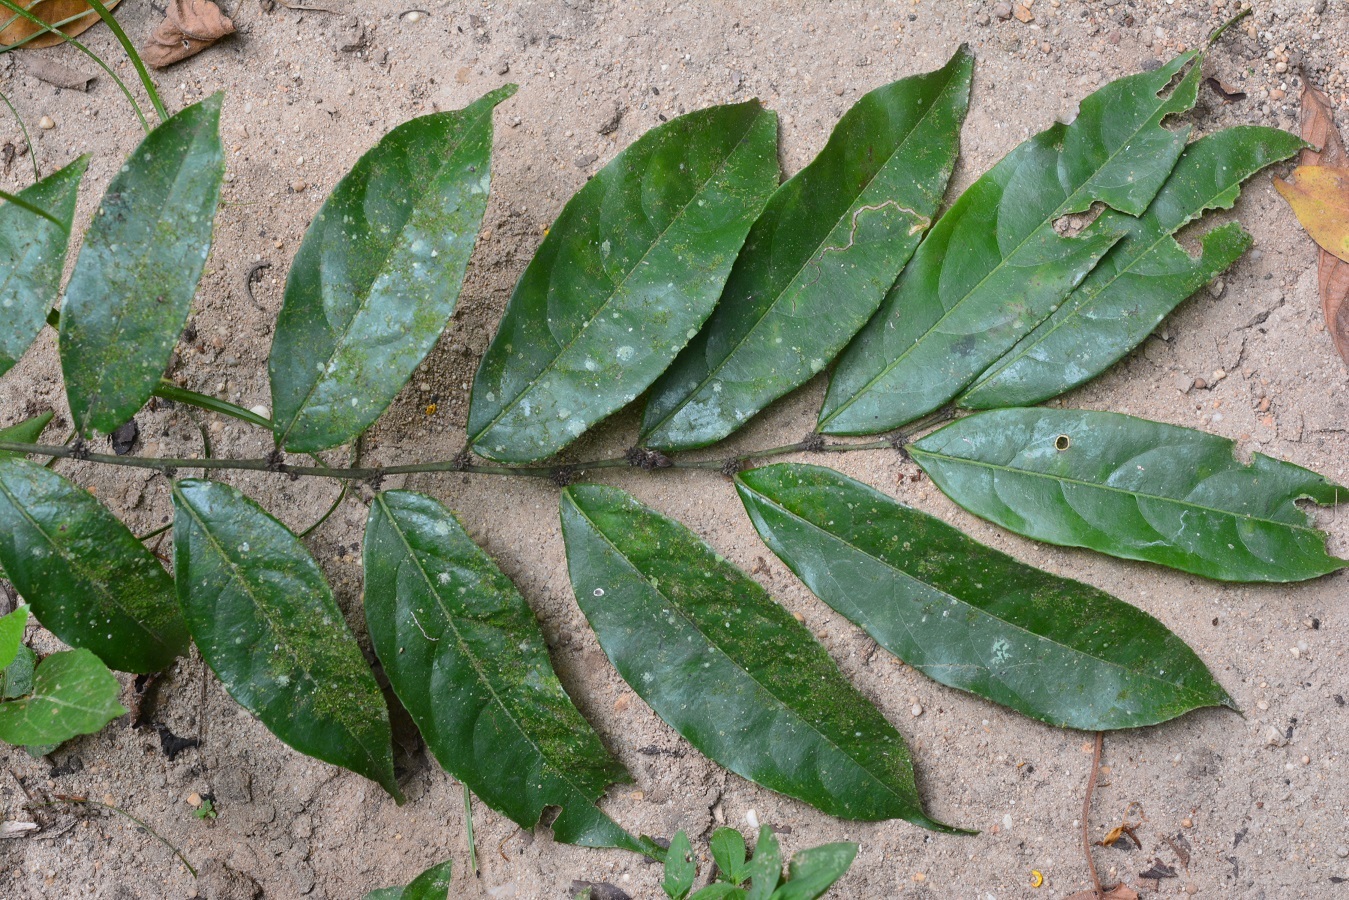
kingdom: Plantae
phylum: Tracheophyta
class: Magnoliopsida
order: Malpighiales
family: Salicaceae
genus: Piparea
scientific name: Piparea dentata
